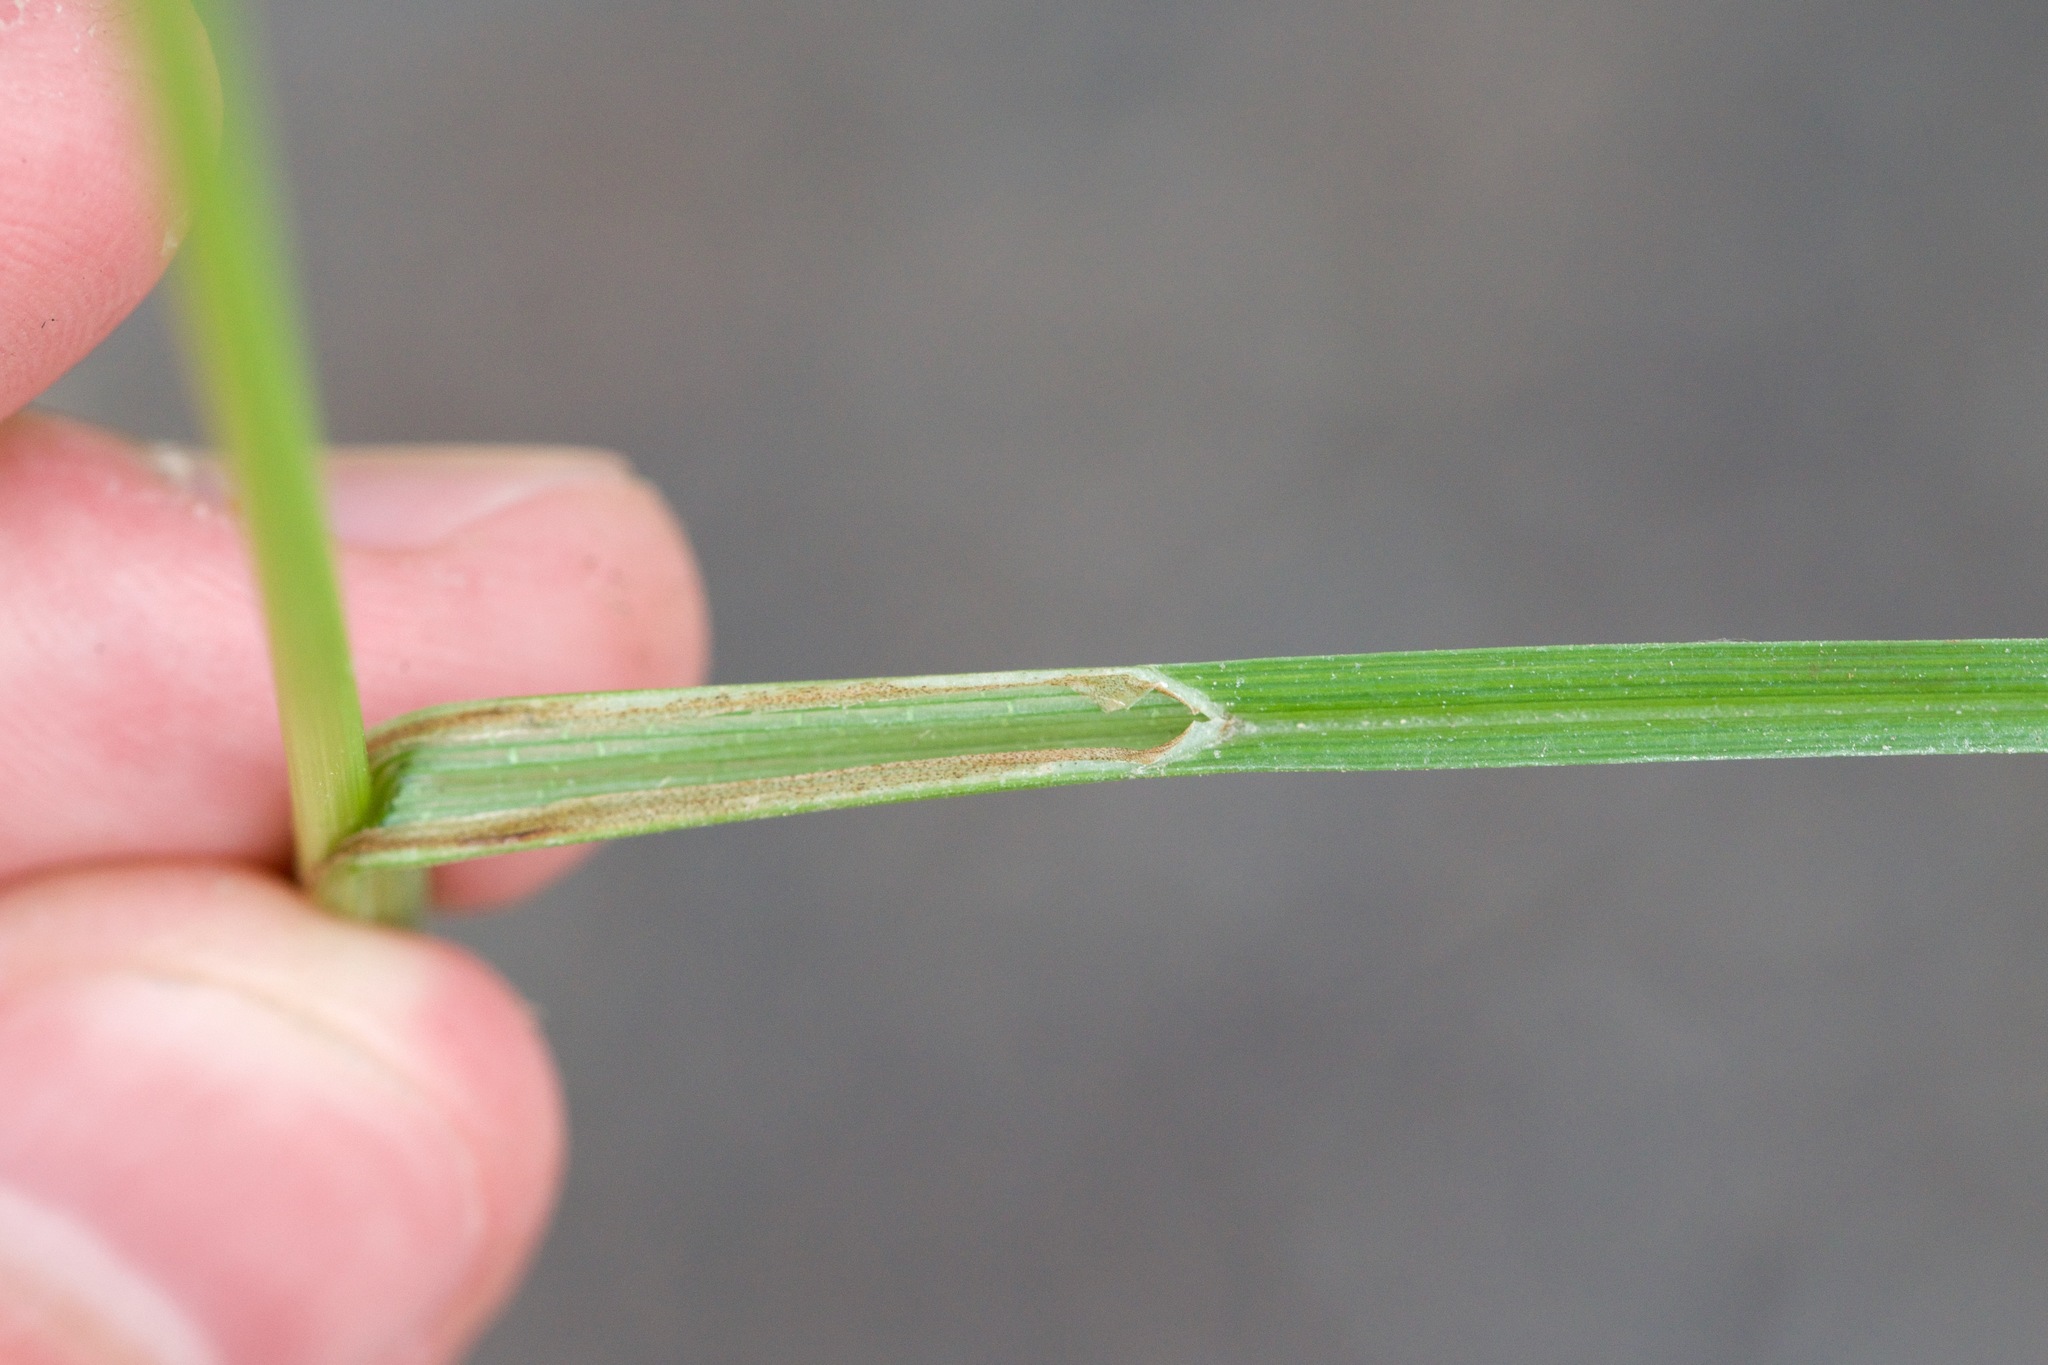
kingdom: Plantae
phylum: Tracheophyta
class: Liliopsida
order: Poales
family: Cyperaceae
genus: Eriophorum
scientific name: Eriophorum tenellum
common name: Few-nerved cottongrass
